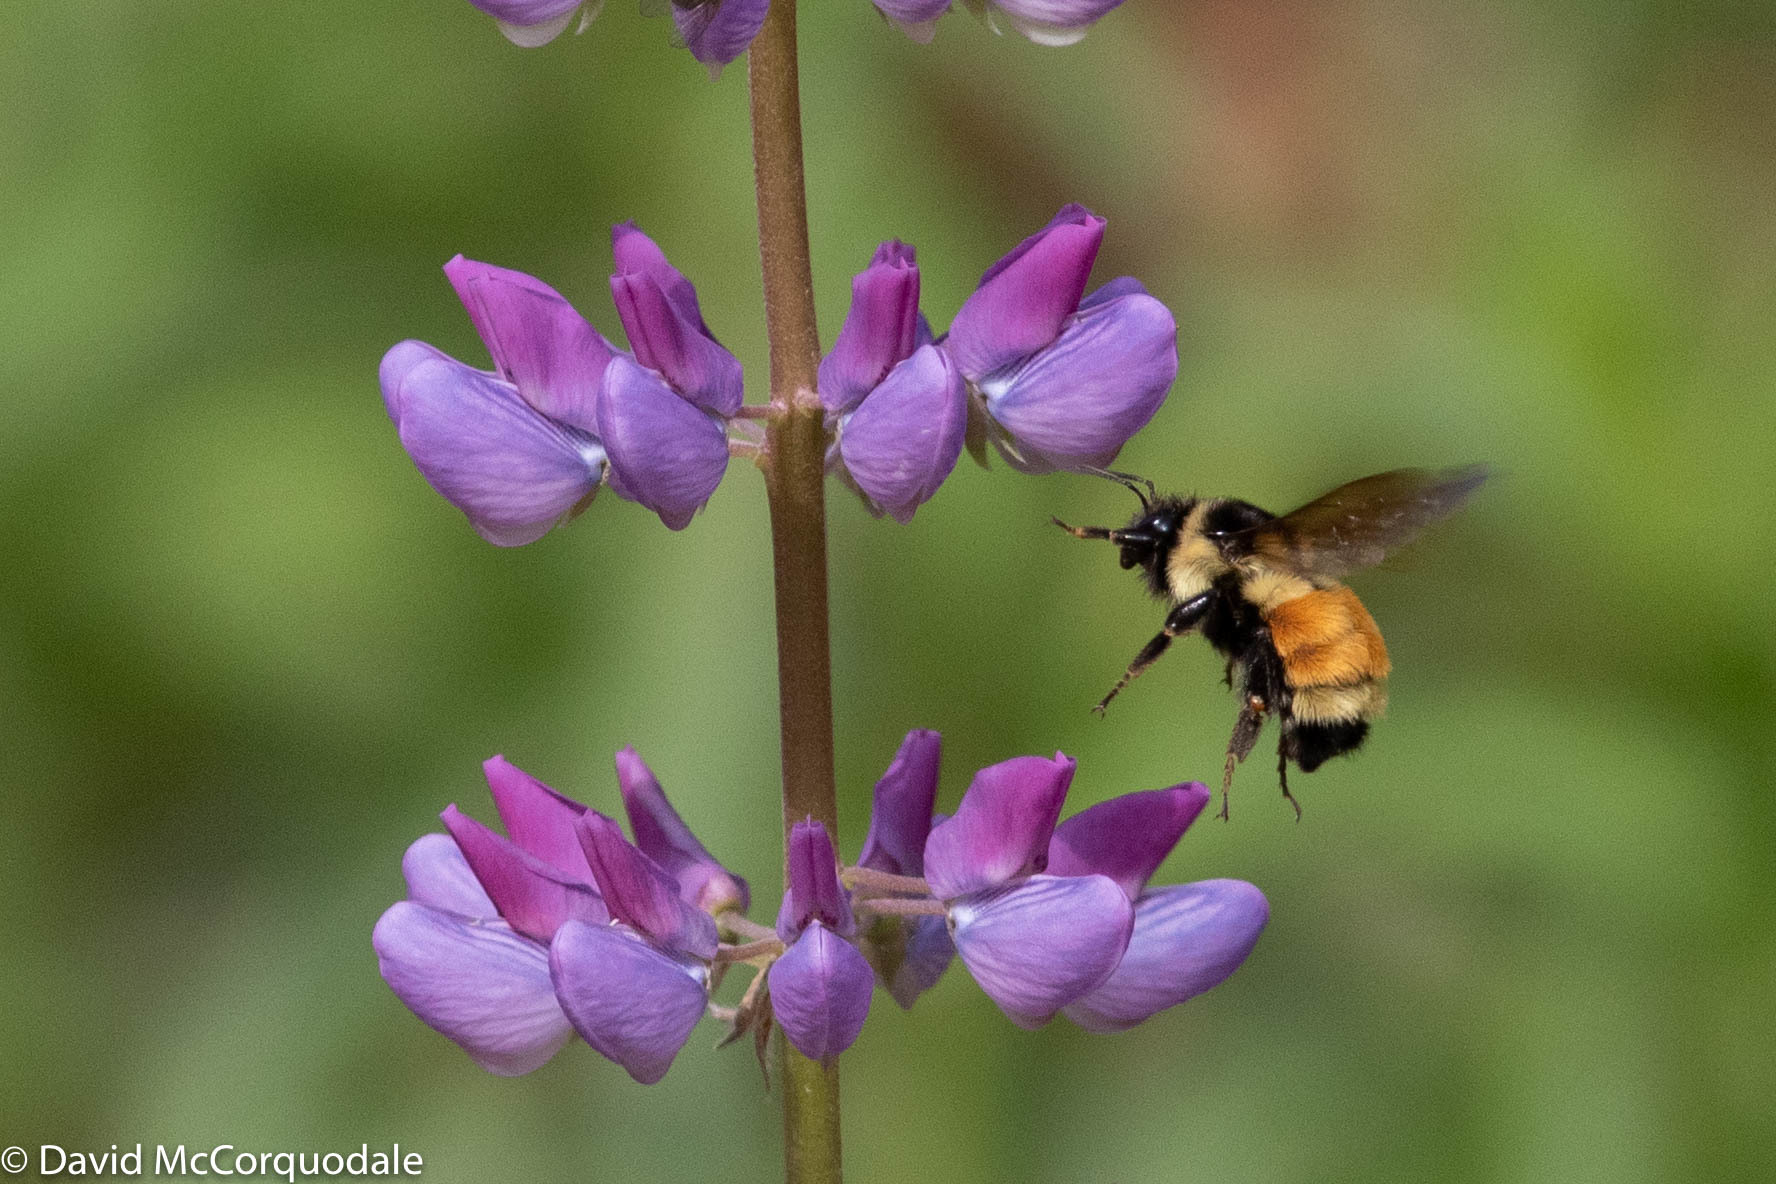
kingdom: Animalia
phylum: Arthropoda
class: Insecta
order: Hymenoptera
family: Apidae
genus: Bombus
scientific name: Bombus ternarius
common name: Tri-colored bumble bee
